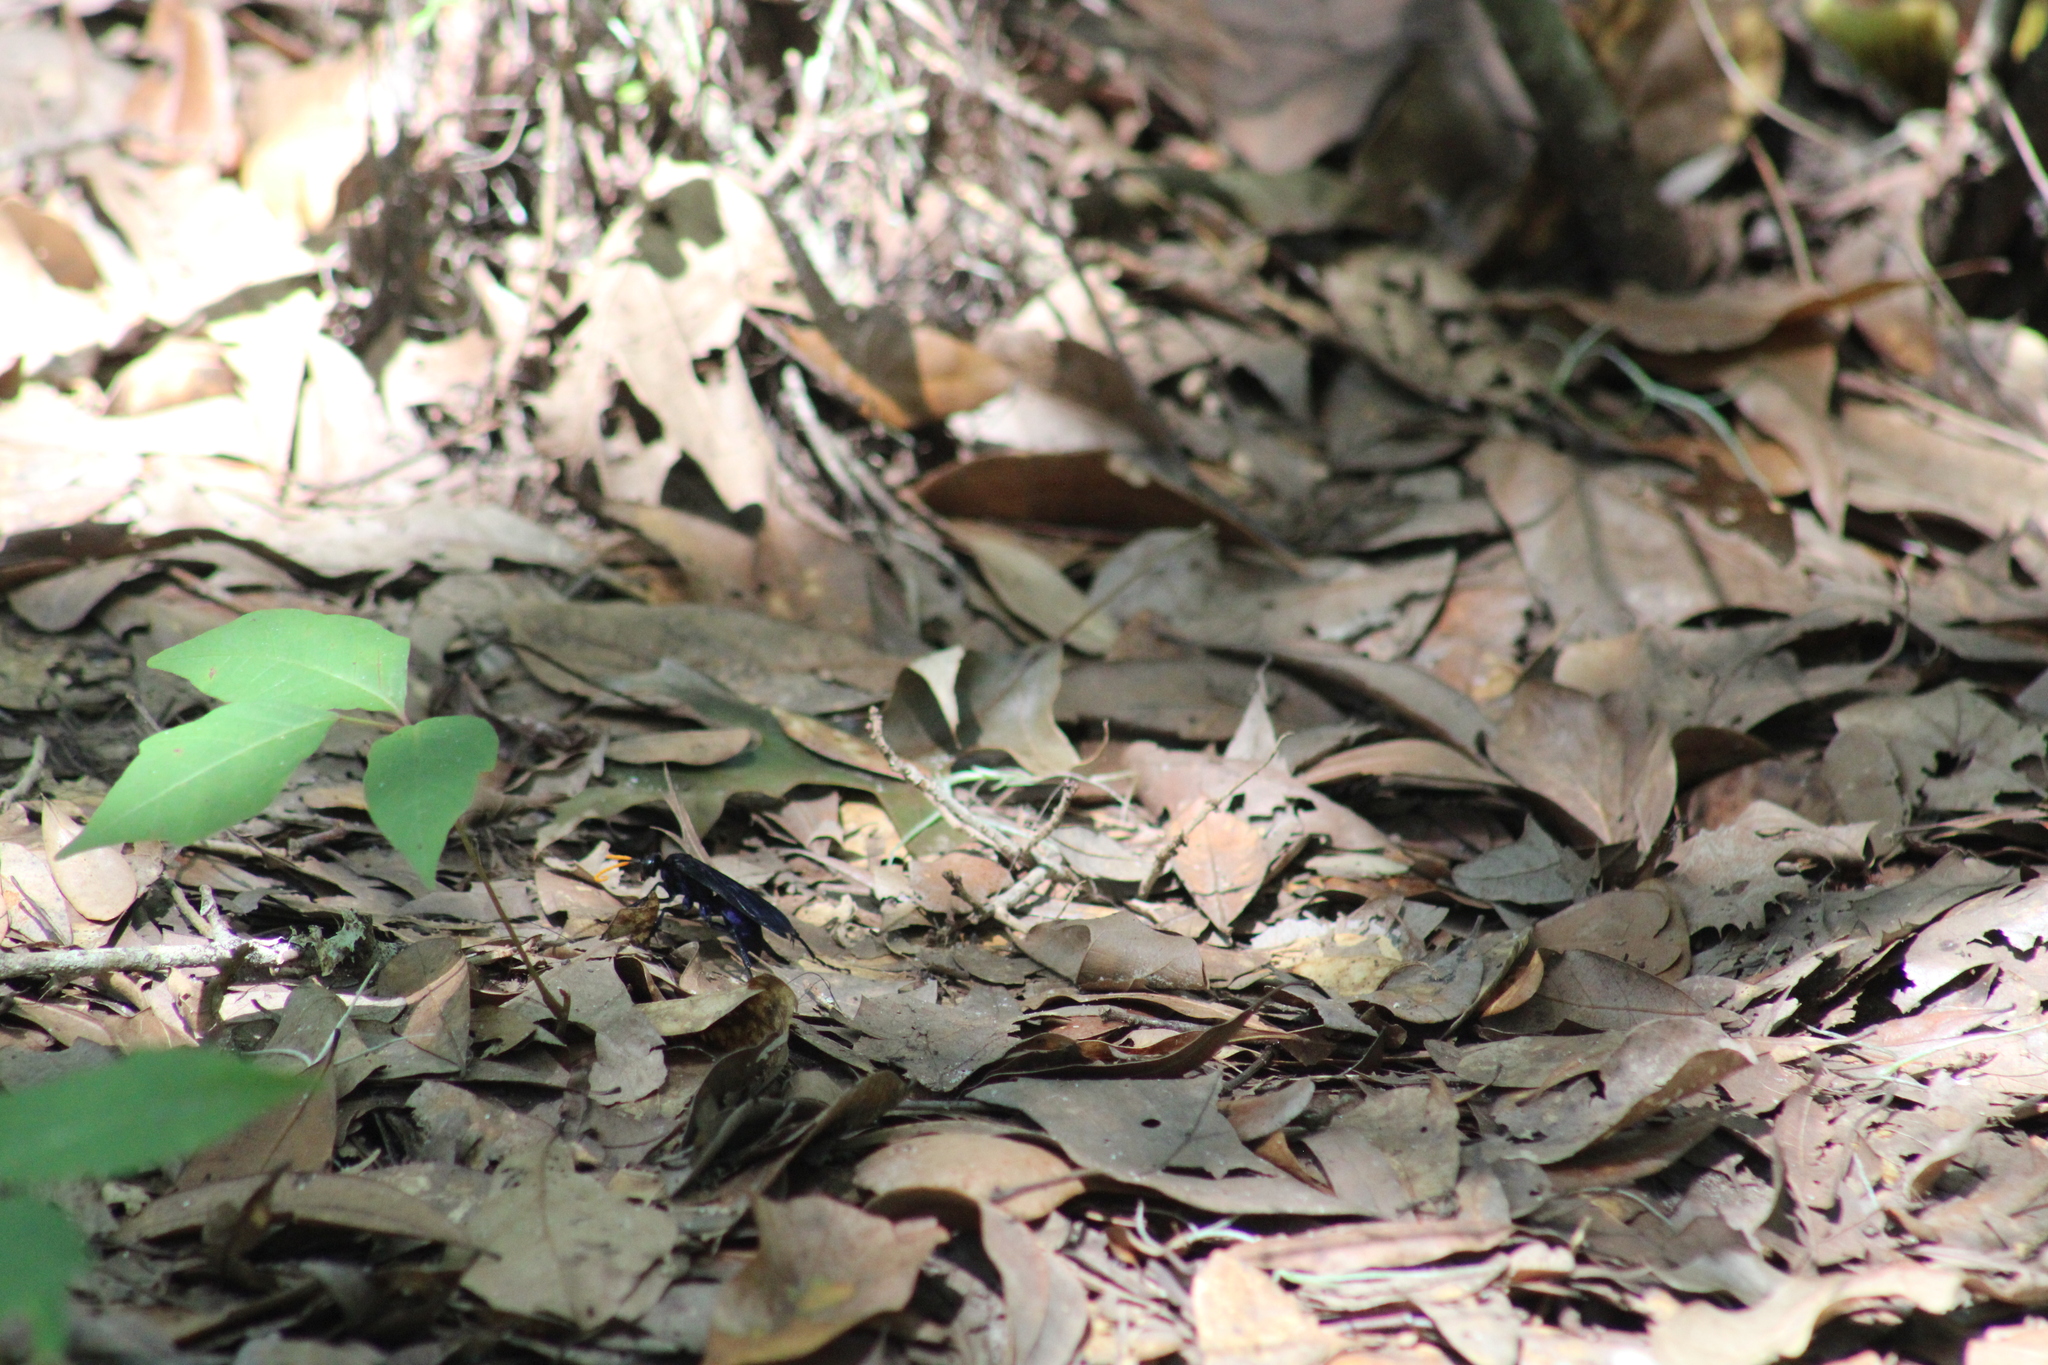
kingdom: Animalia
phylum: Arthropoda
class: Insecta
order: Hymenoptera
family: Pompilidae
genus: Pepsis
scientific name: Pepsis menechma
